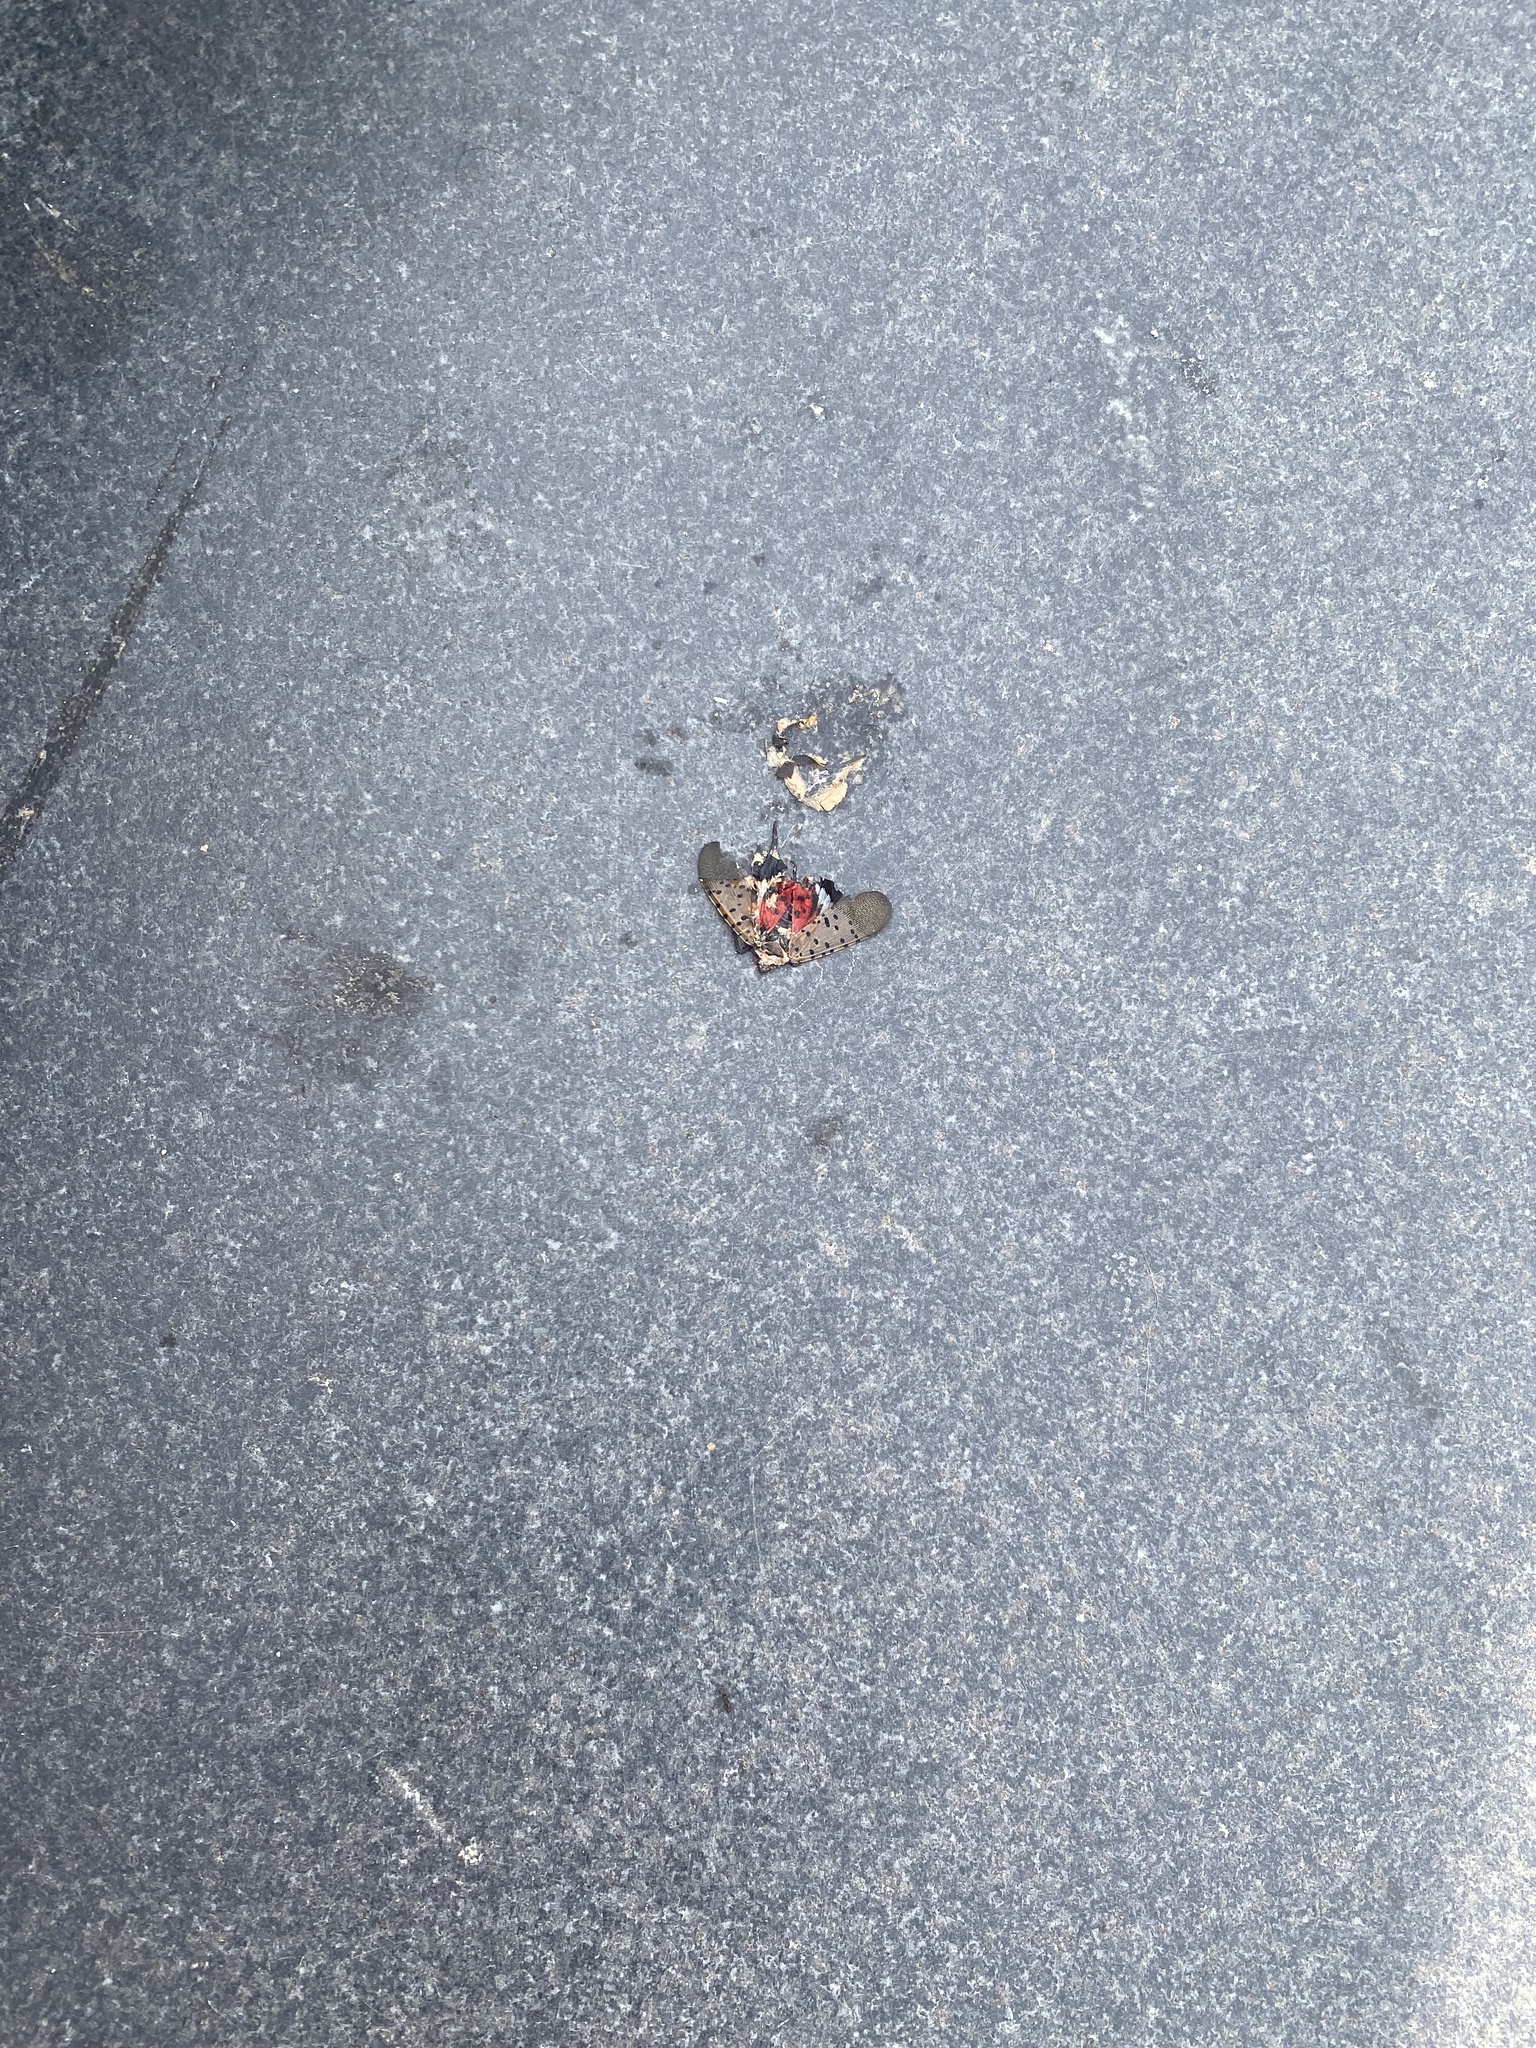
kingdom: Animalia
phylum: Arthropoda
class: Insecta
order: Hemiptera
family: Fulgoridae
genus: Lycorma
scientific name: Lycorma delicatula
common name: Spotted lanternfly
